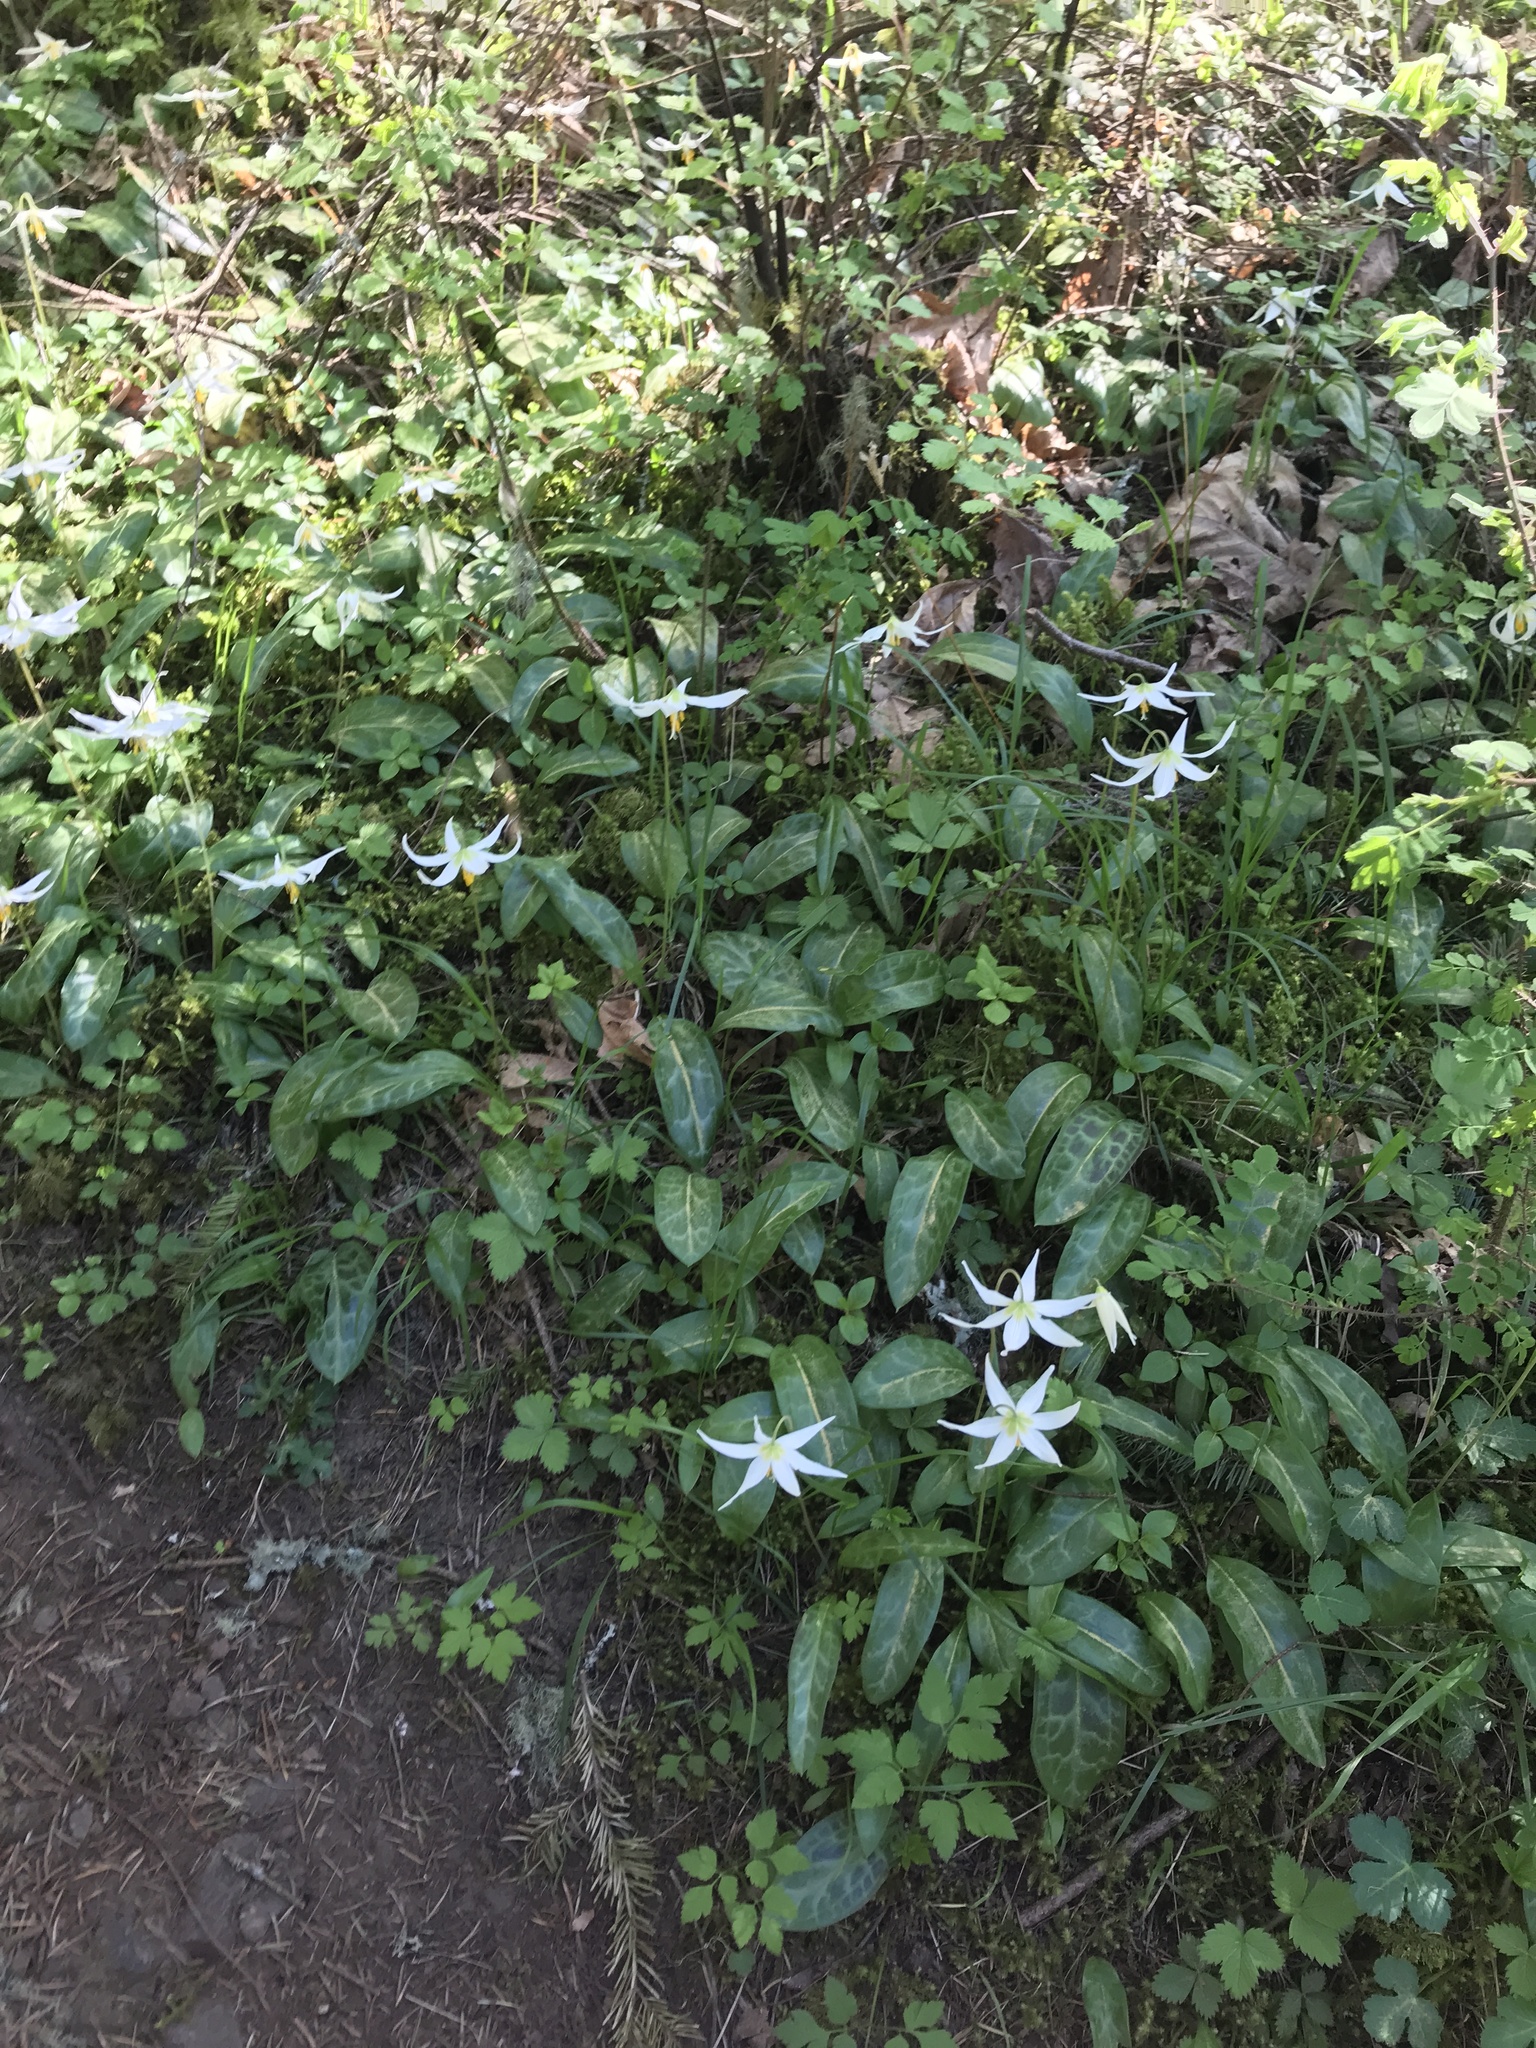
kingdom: Plantae
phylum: Tracheophyta
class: Liliopsida
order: Liliales
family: Liliaceae
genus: Erythronium
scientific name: Erythronium oregonum
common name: Giant adder's-tongue
